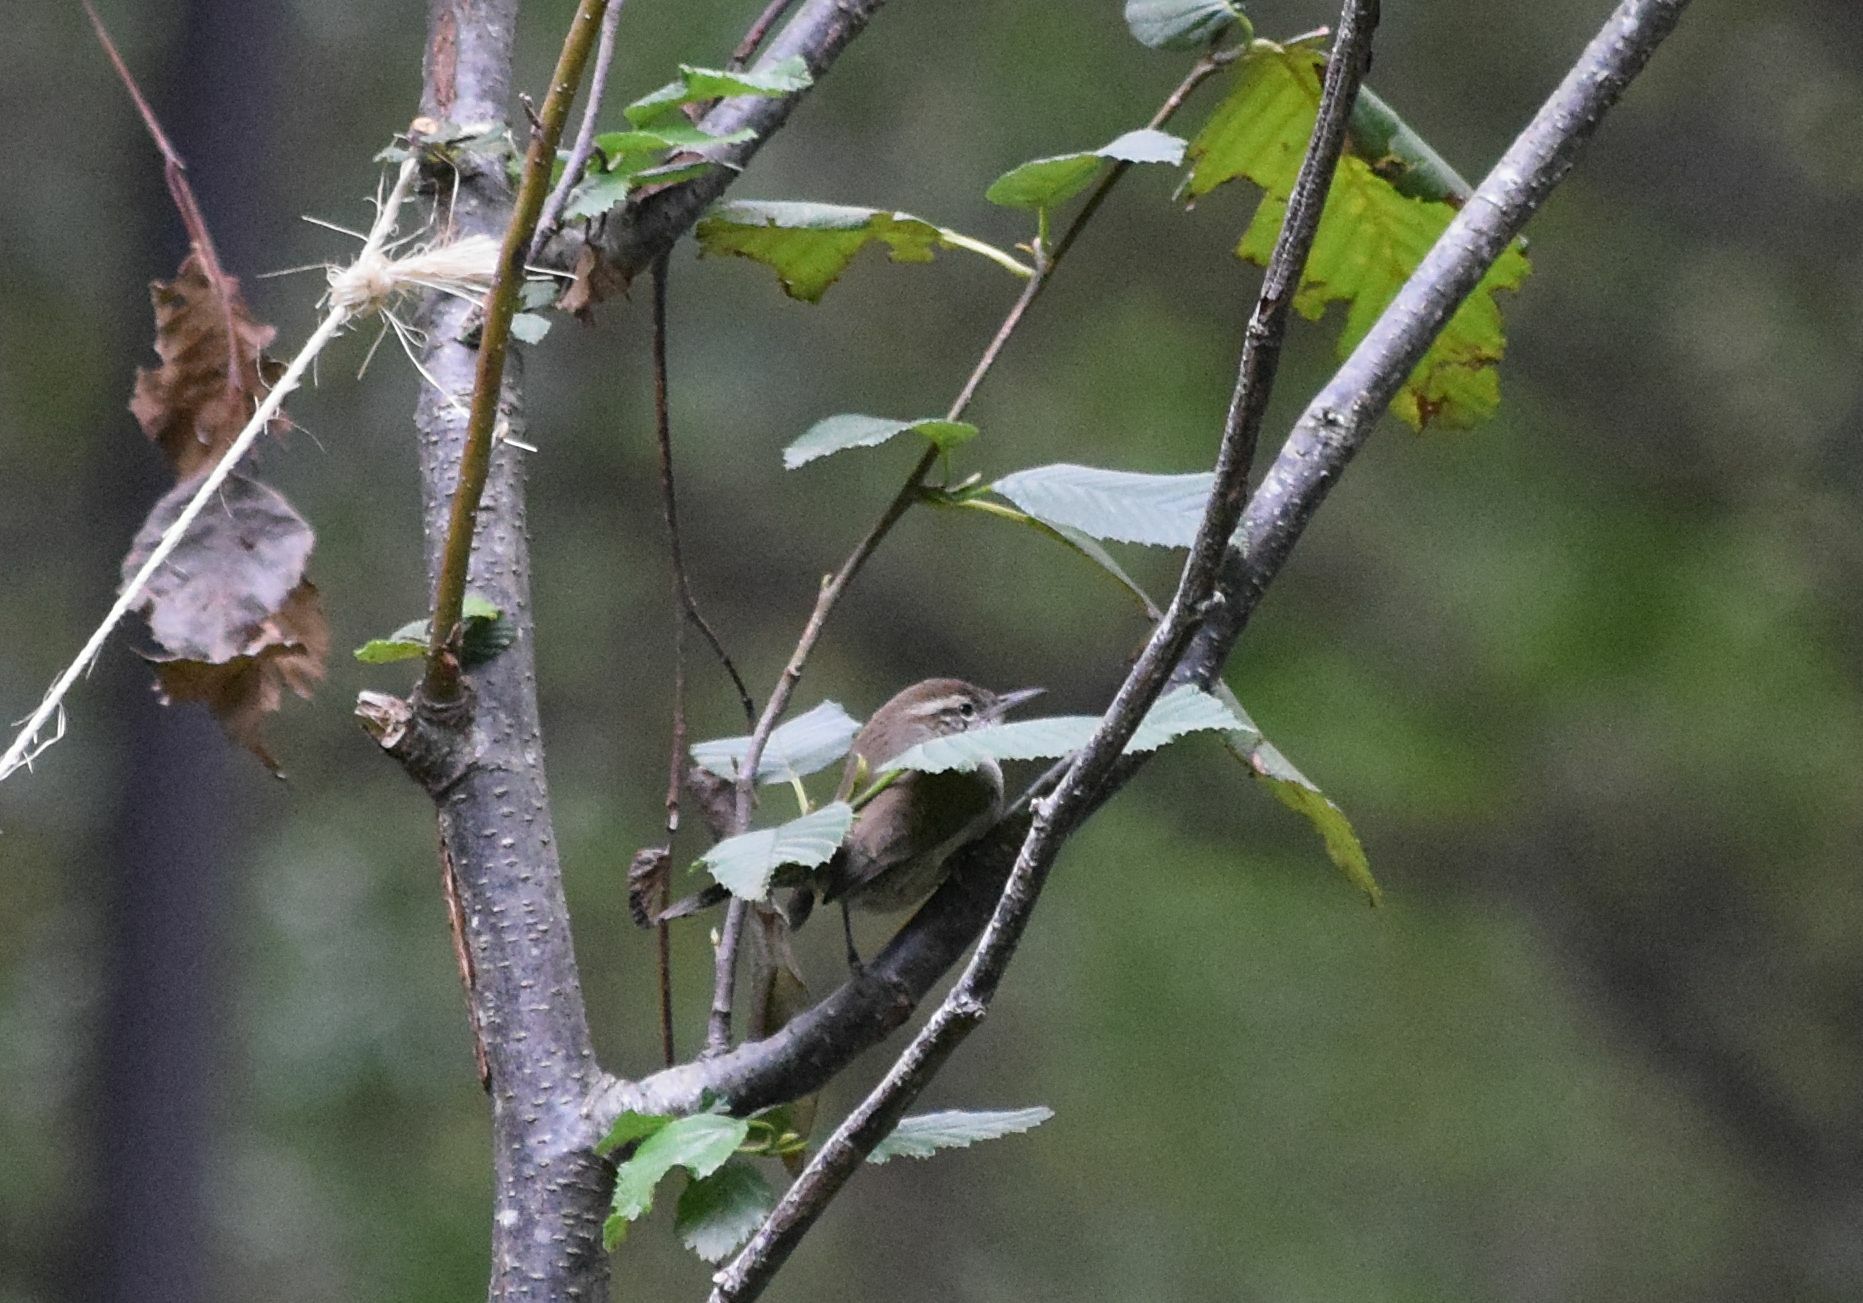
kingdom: Animalia
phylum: Chordata
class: Aves
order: Passeriformes
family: Troglodytidae
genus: Thryomanes
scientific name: Thryomanes bewickii
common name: Bewick's wren
